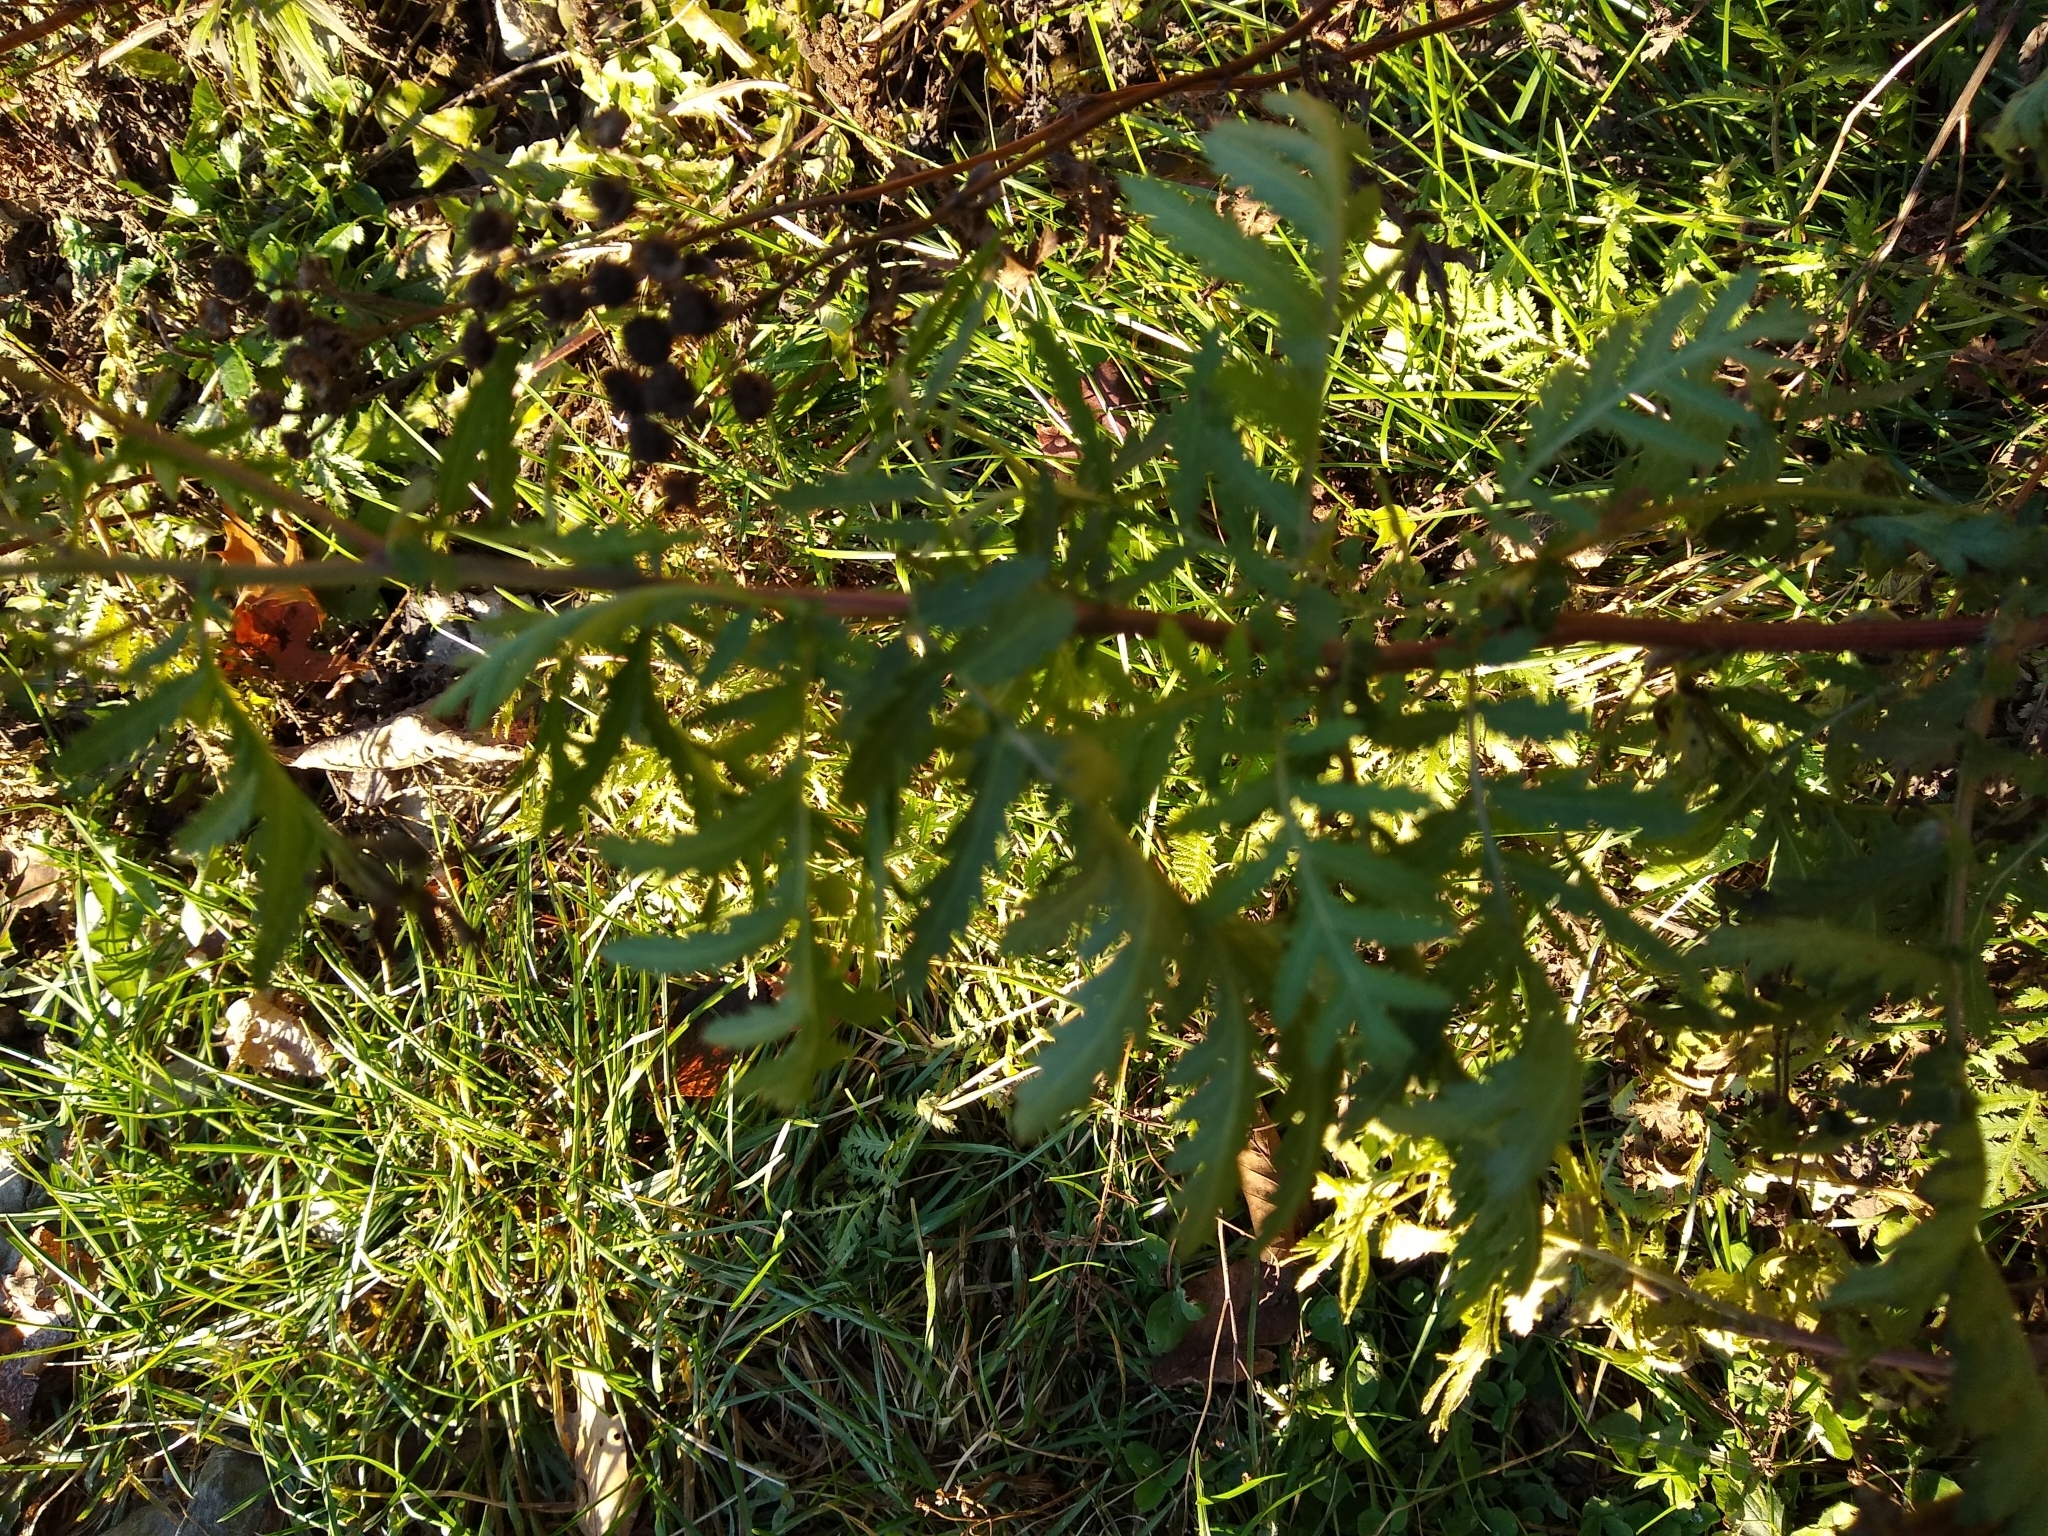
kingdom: Plantae
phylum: Tracheophyta
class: Magnoliopsida
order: Asterales
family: Asteraceae
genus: Tanacetum
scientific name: Tanacetum vulgare
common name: Common tansy
